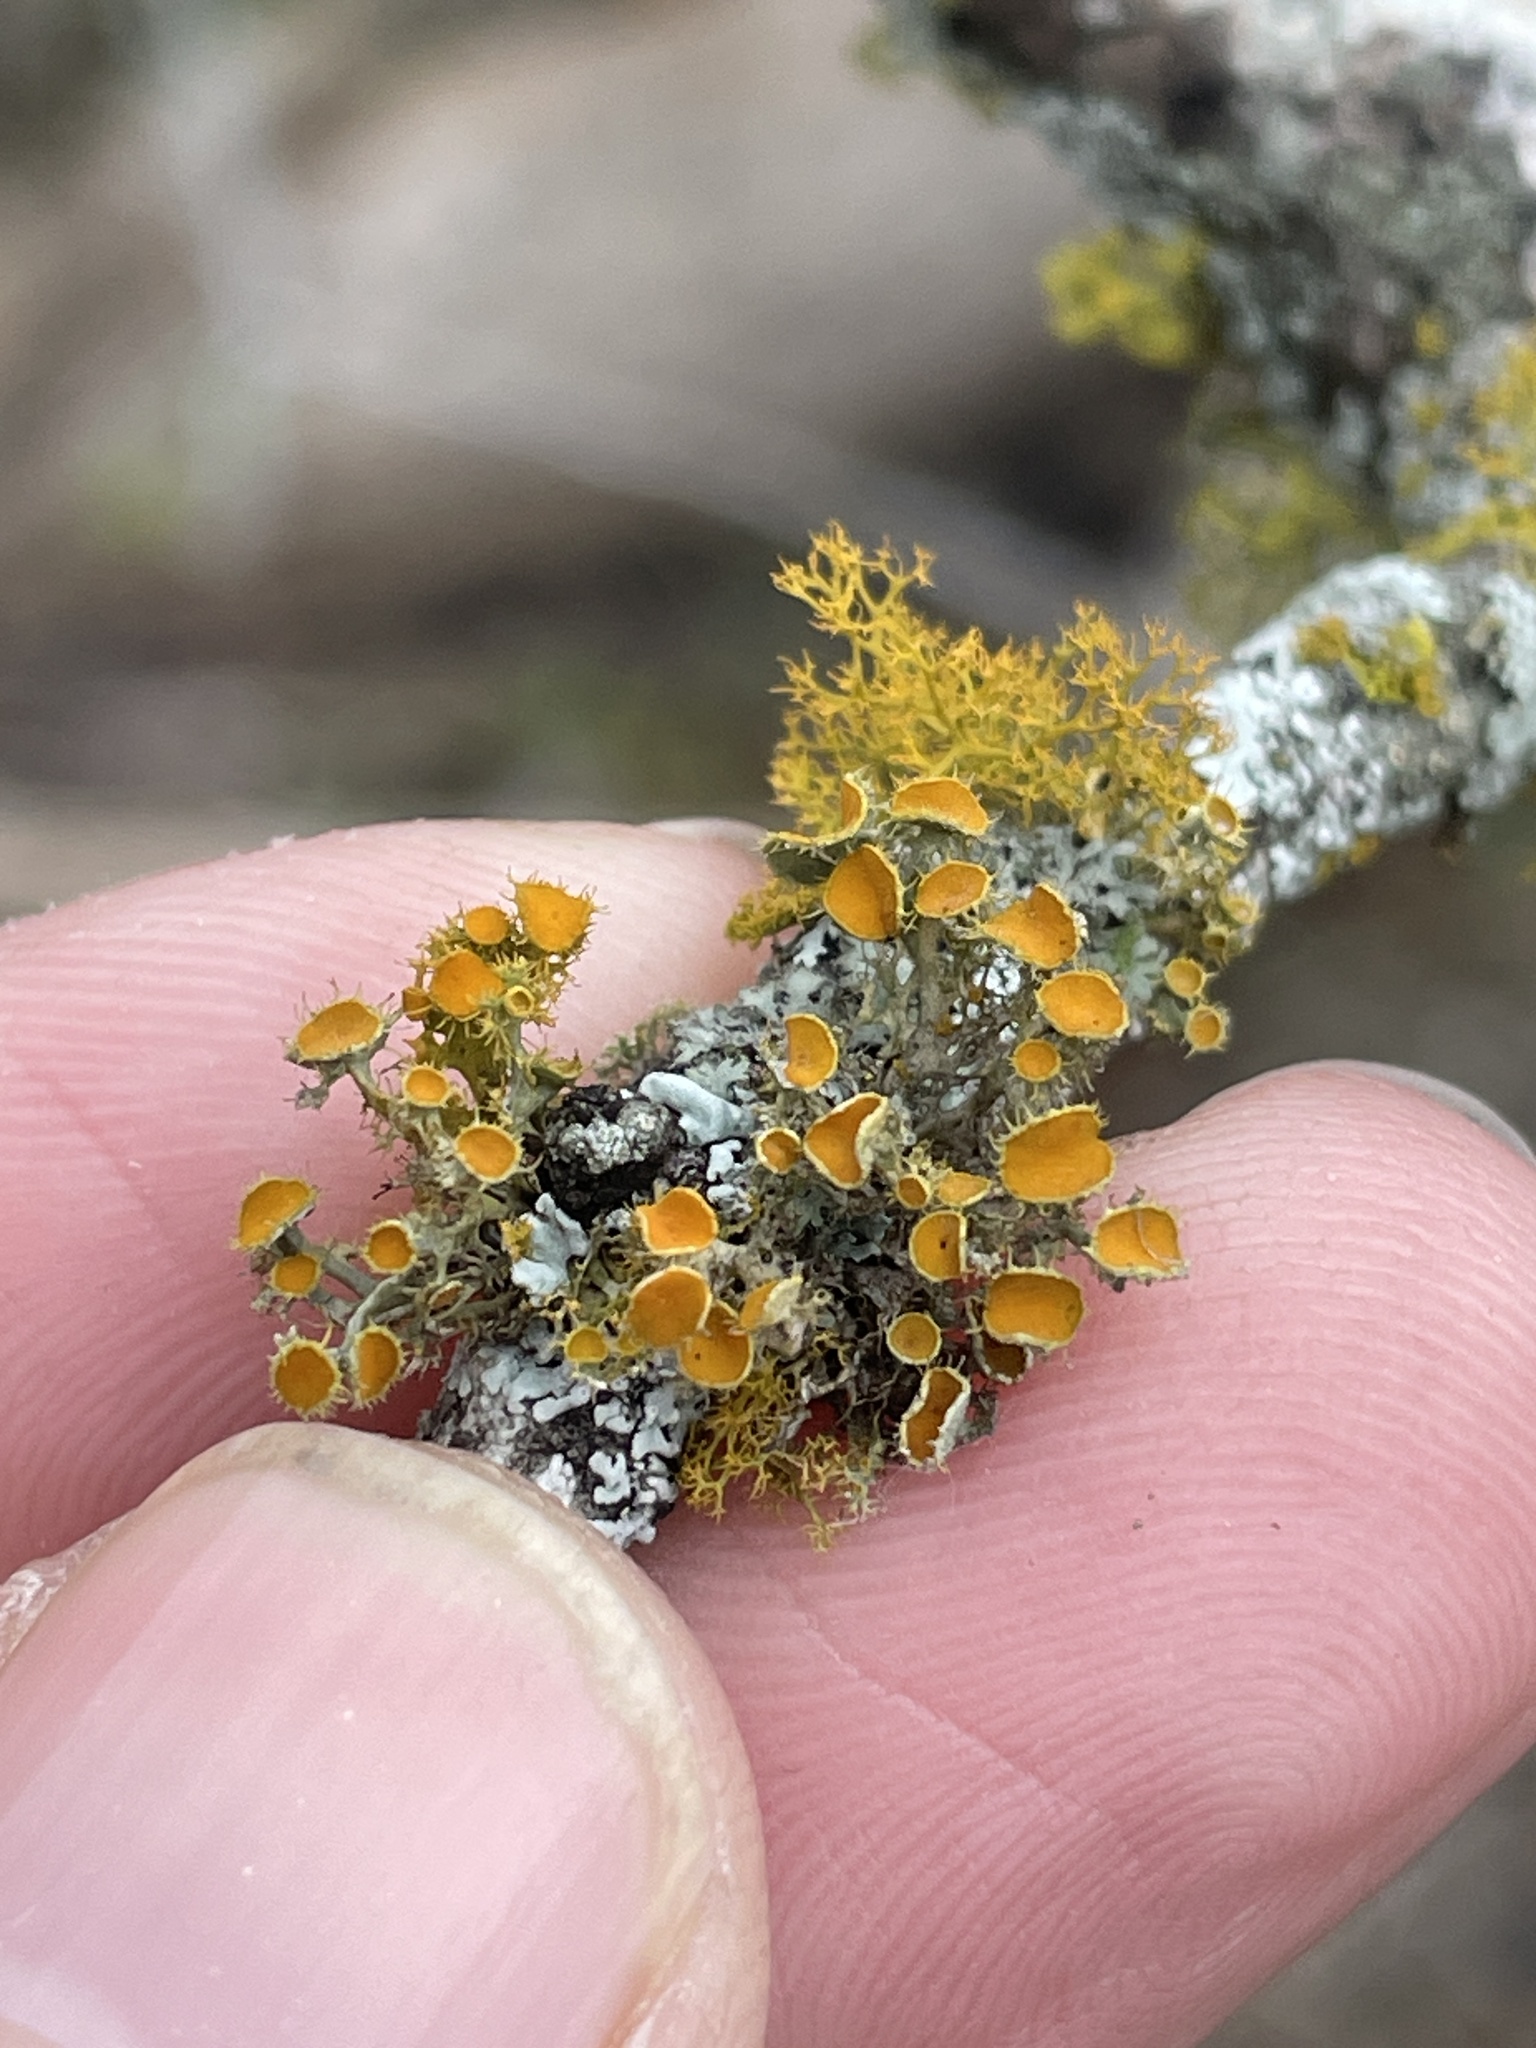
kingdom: Fungi
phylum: Ascomycota
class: Lecanoromycetes
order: Teloschistales
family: Teloschistaceae
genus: Niorma
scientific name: Niorma chrysophthalma
